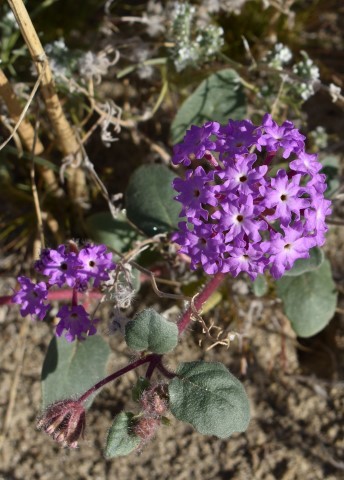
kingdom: Plantae
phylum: Tracheophyta
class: Magnoliopsida
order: Caryophyllales
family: Nyctaginaceae
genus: Abronia
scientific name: Abronia villosa
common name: Desert sand-verbena
